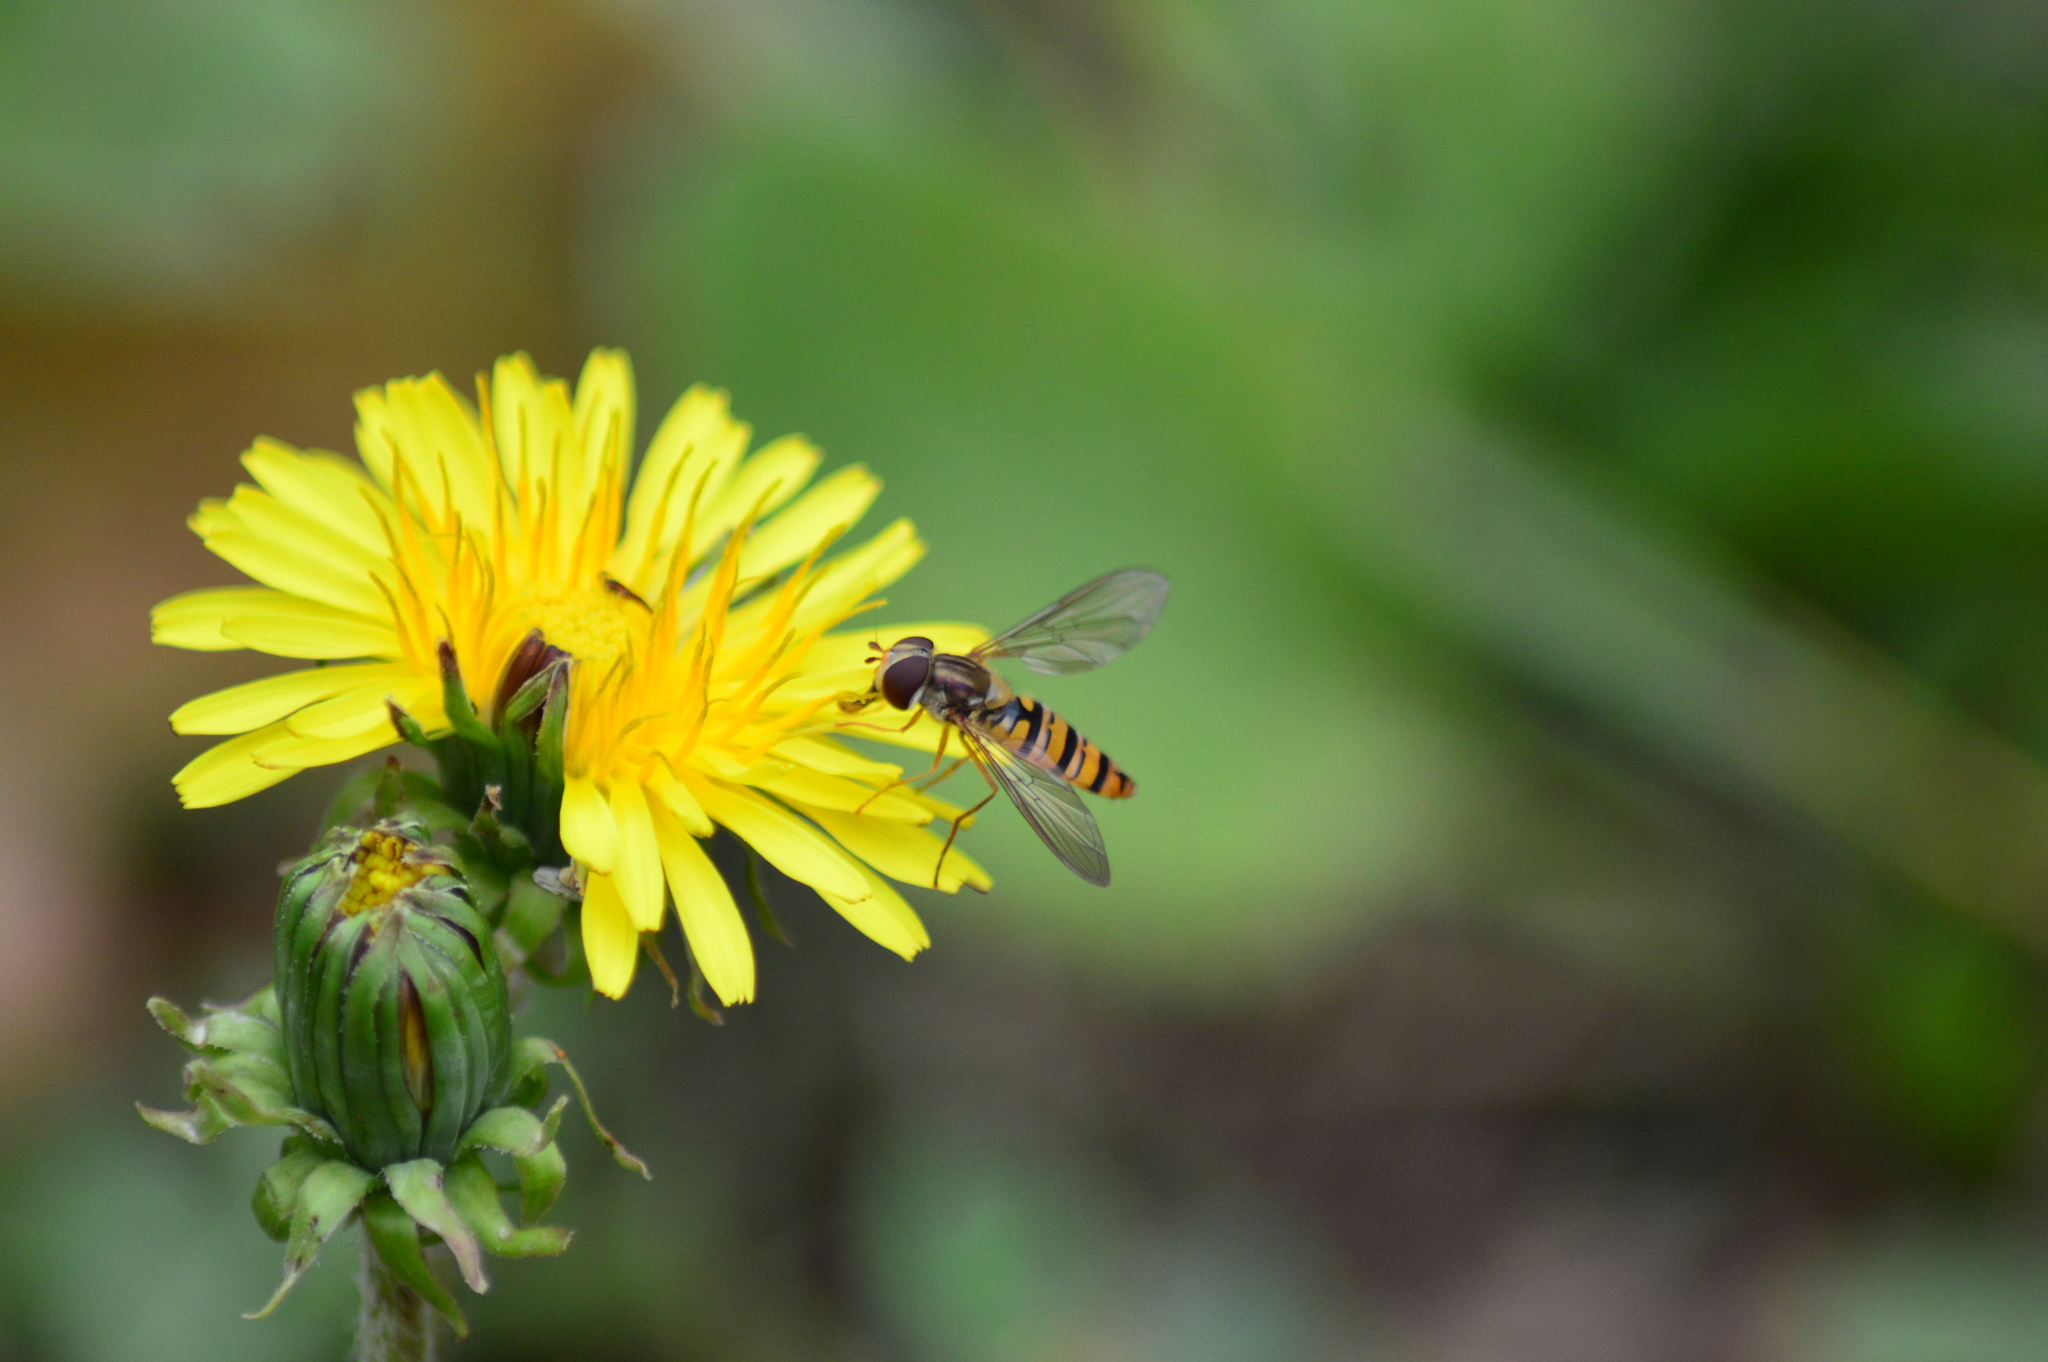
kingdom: Animalia
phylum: Arthropoda
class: Insecta
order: Diptera
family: Syrphidae
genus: Episyrphus
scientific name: Episyrphus balteatus
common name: Marmalade hoverfly
